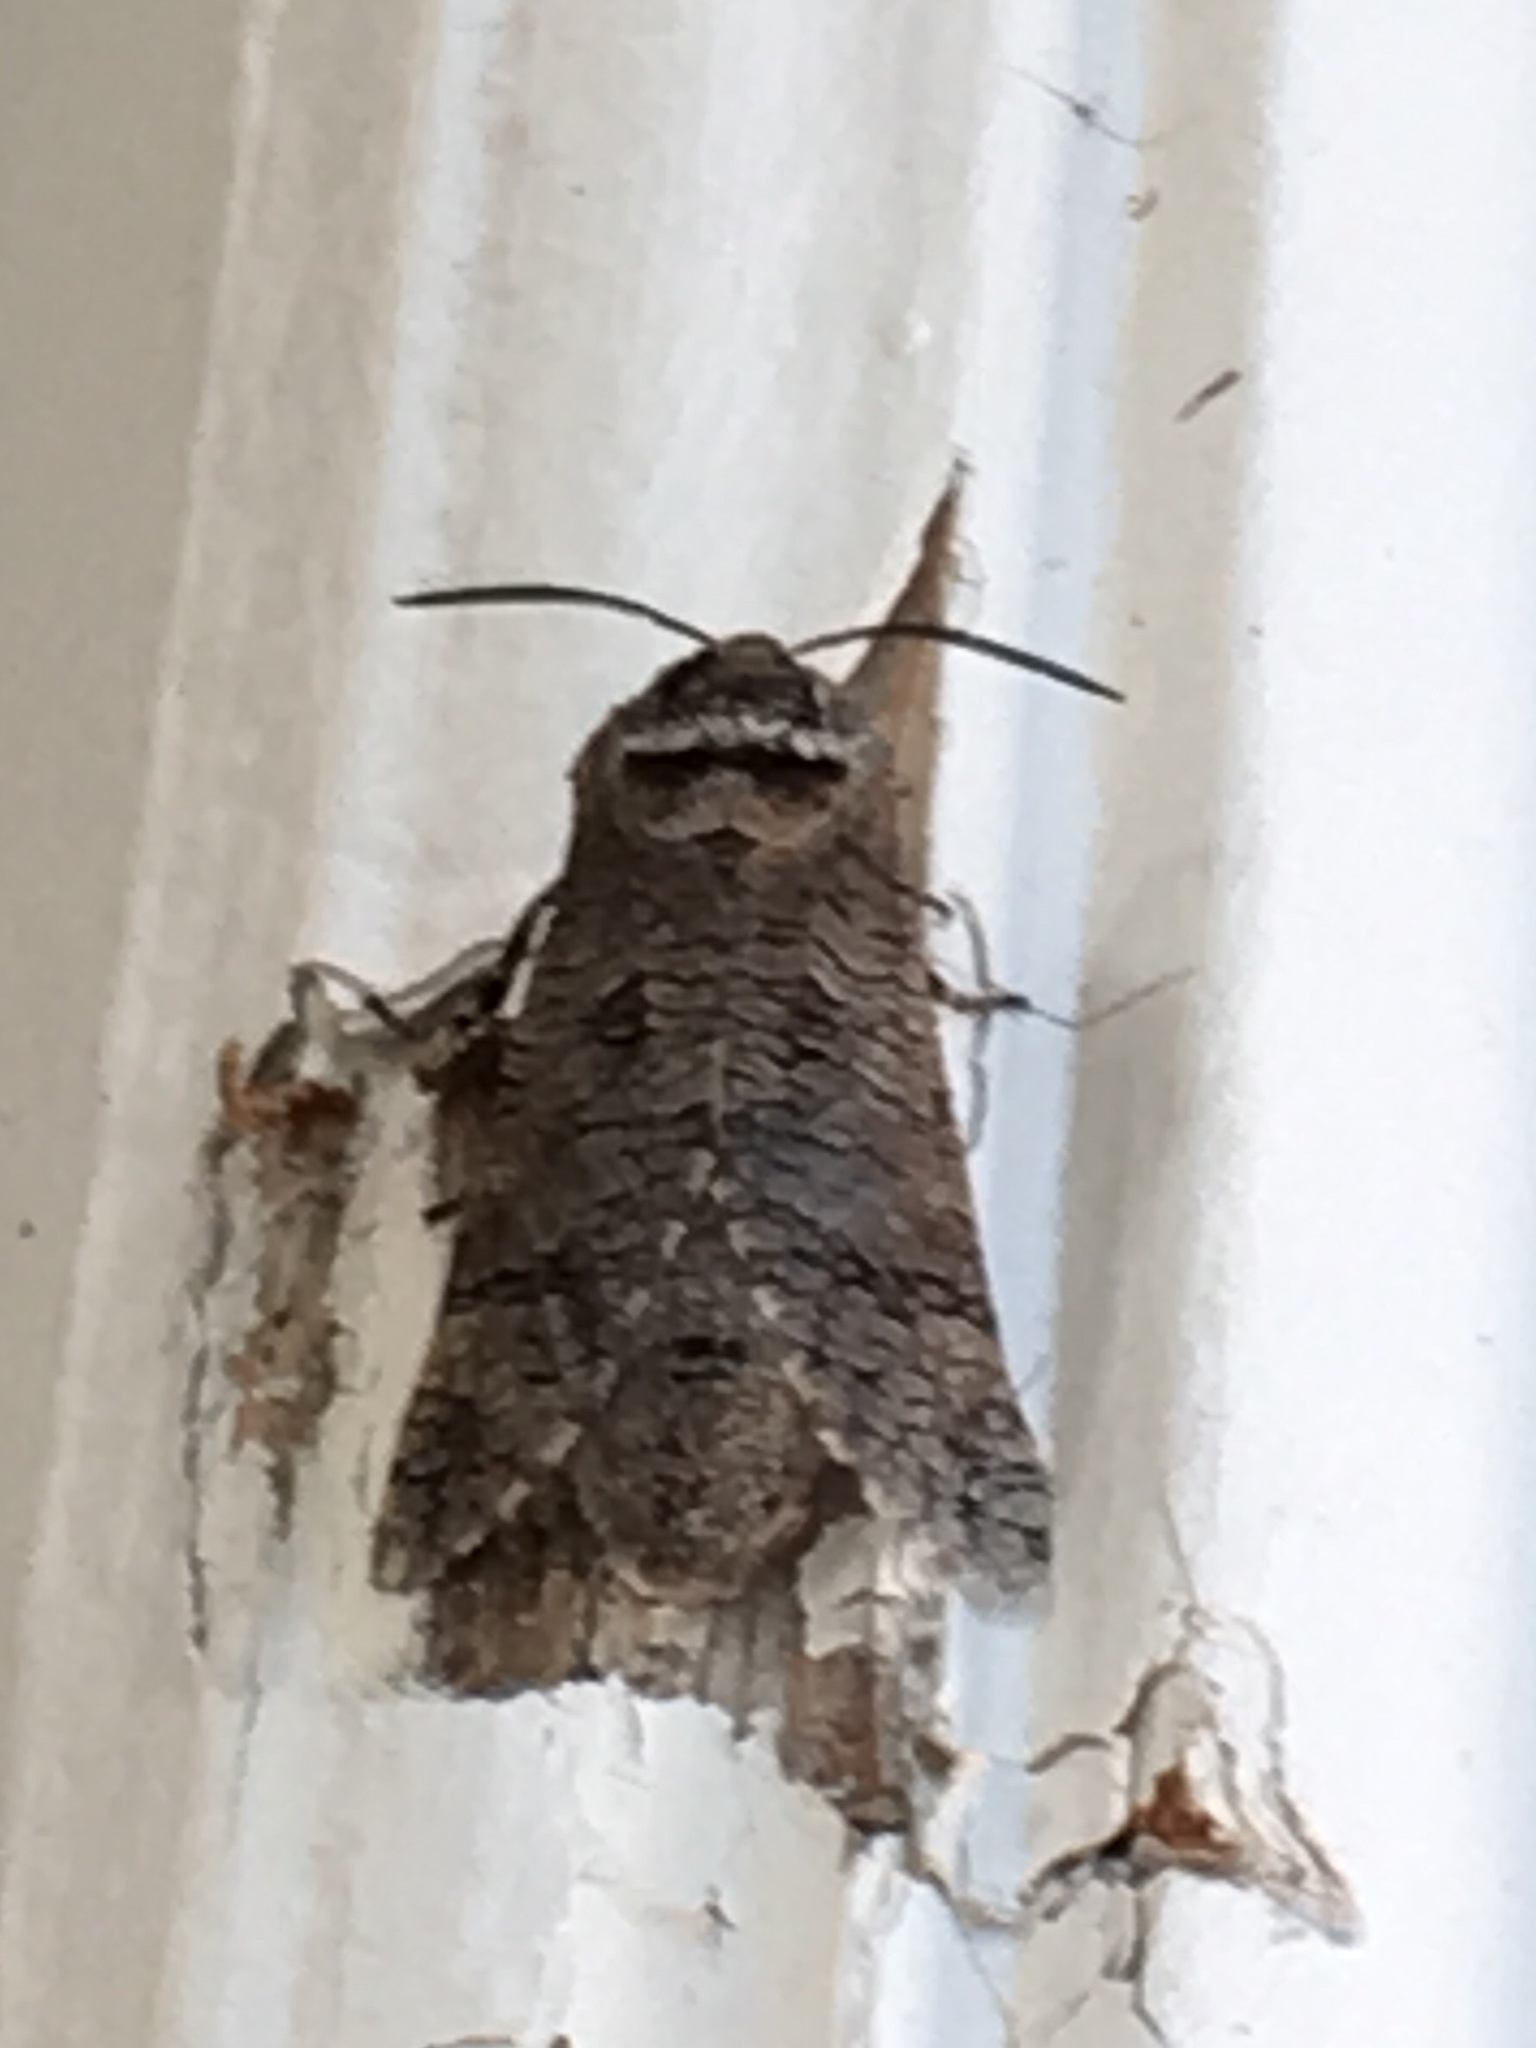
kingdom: Animalia
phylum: Arthropoda
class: Insecta
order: Lepidoptera
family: Cossidae
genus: Prionoxystus
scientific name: Prionoxystus macmurtrei
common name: Little carpenterworm
